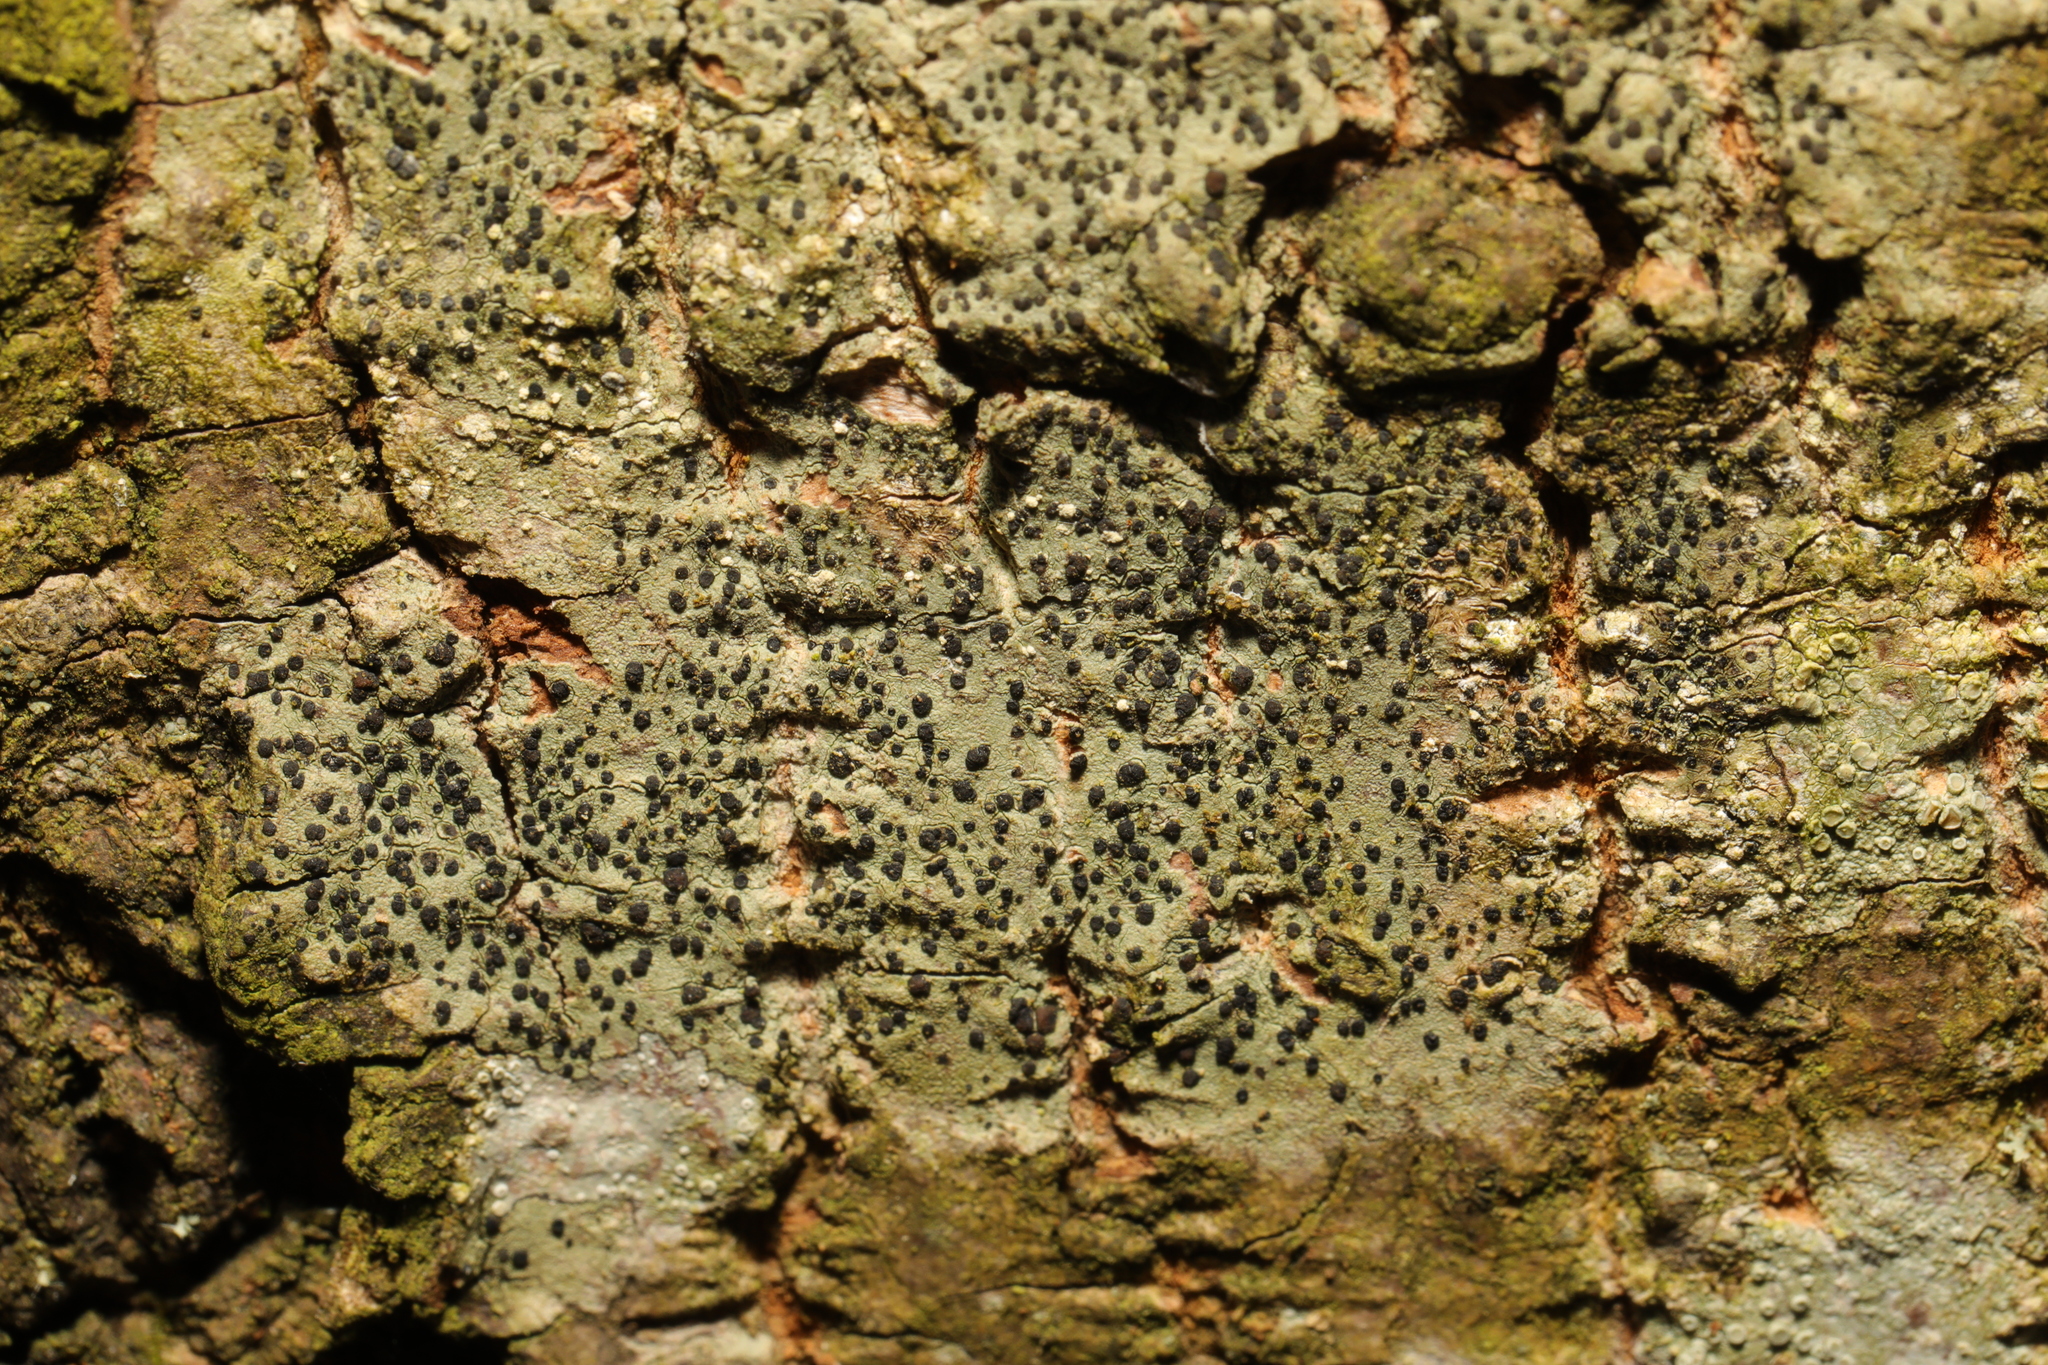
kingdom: Fungi
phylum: Ascomycota
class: Lecanoromycetes
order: Lecanorales
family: Lecanoraceae
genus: Lecidella
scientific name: Lecidella elaeochroma
